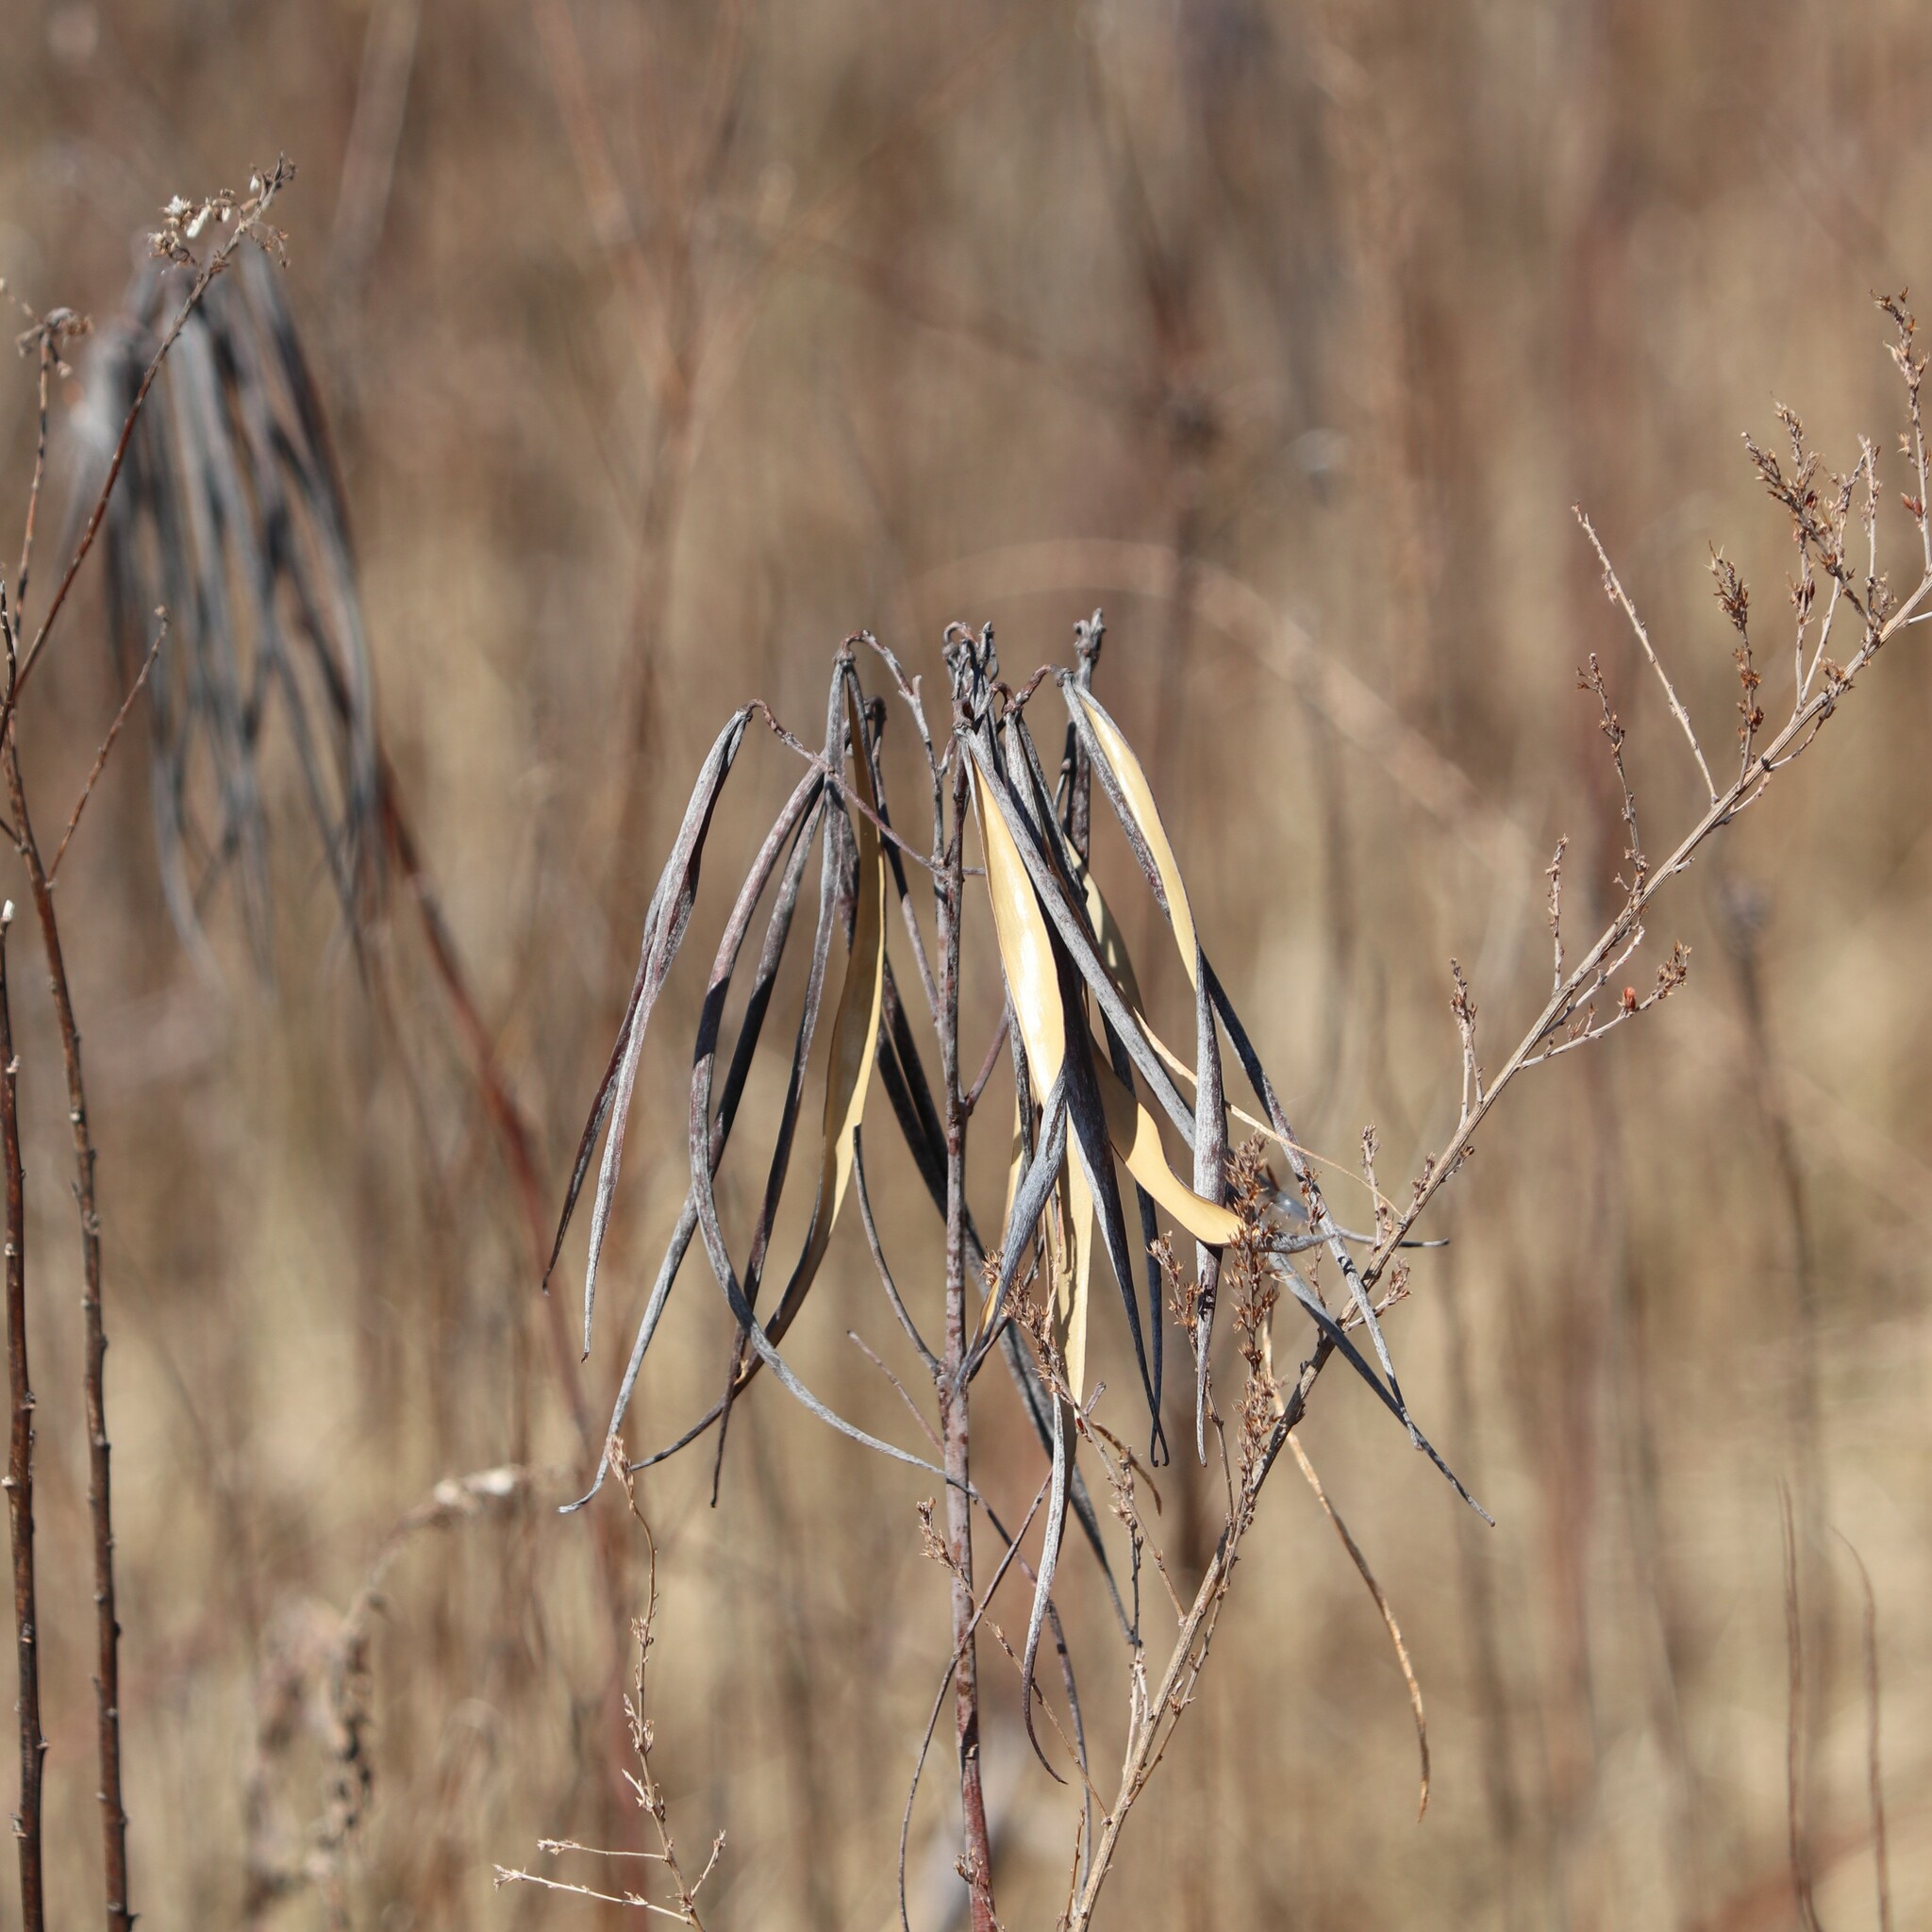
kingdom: Plantae
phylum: Tracheophyta
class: Magnoliopsida
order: Gentianales
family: Apocynaceae
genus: Apocynum
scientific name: Apocynum cannabinum
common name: Hemp dogbane
